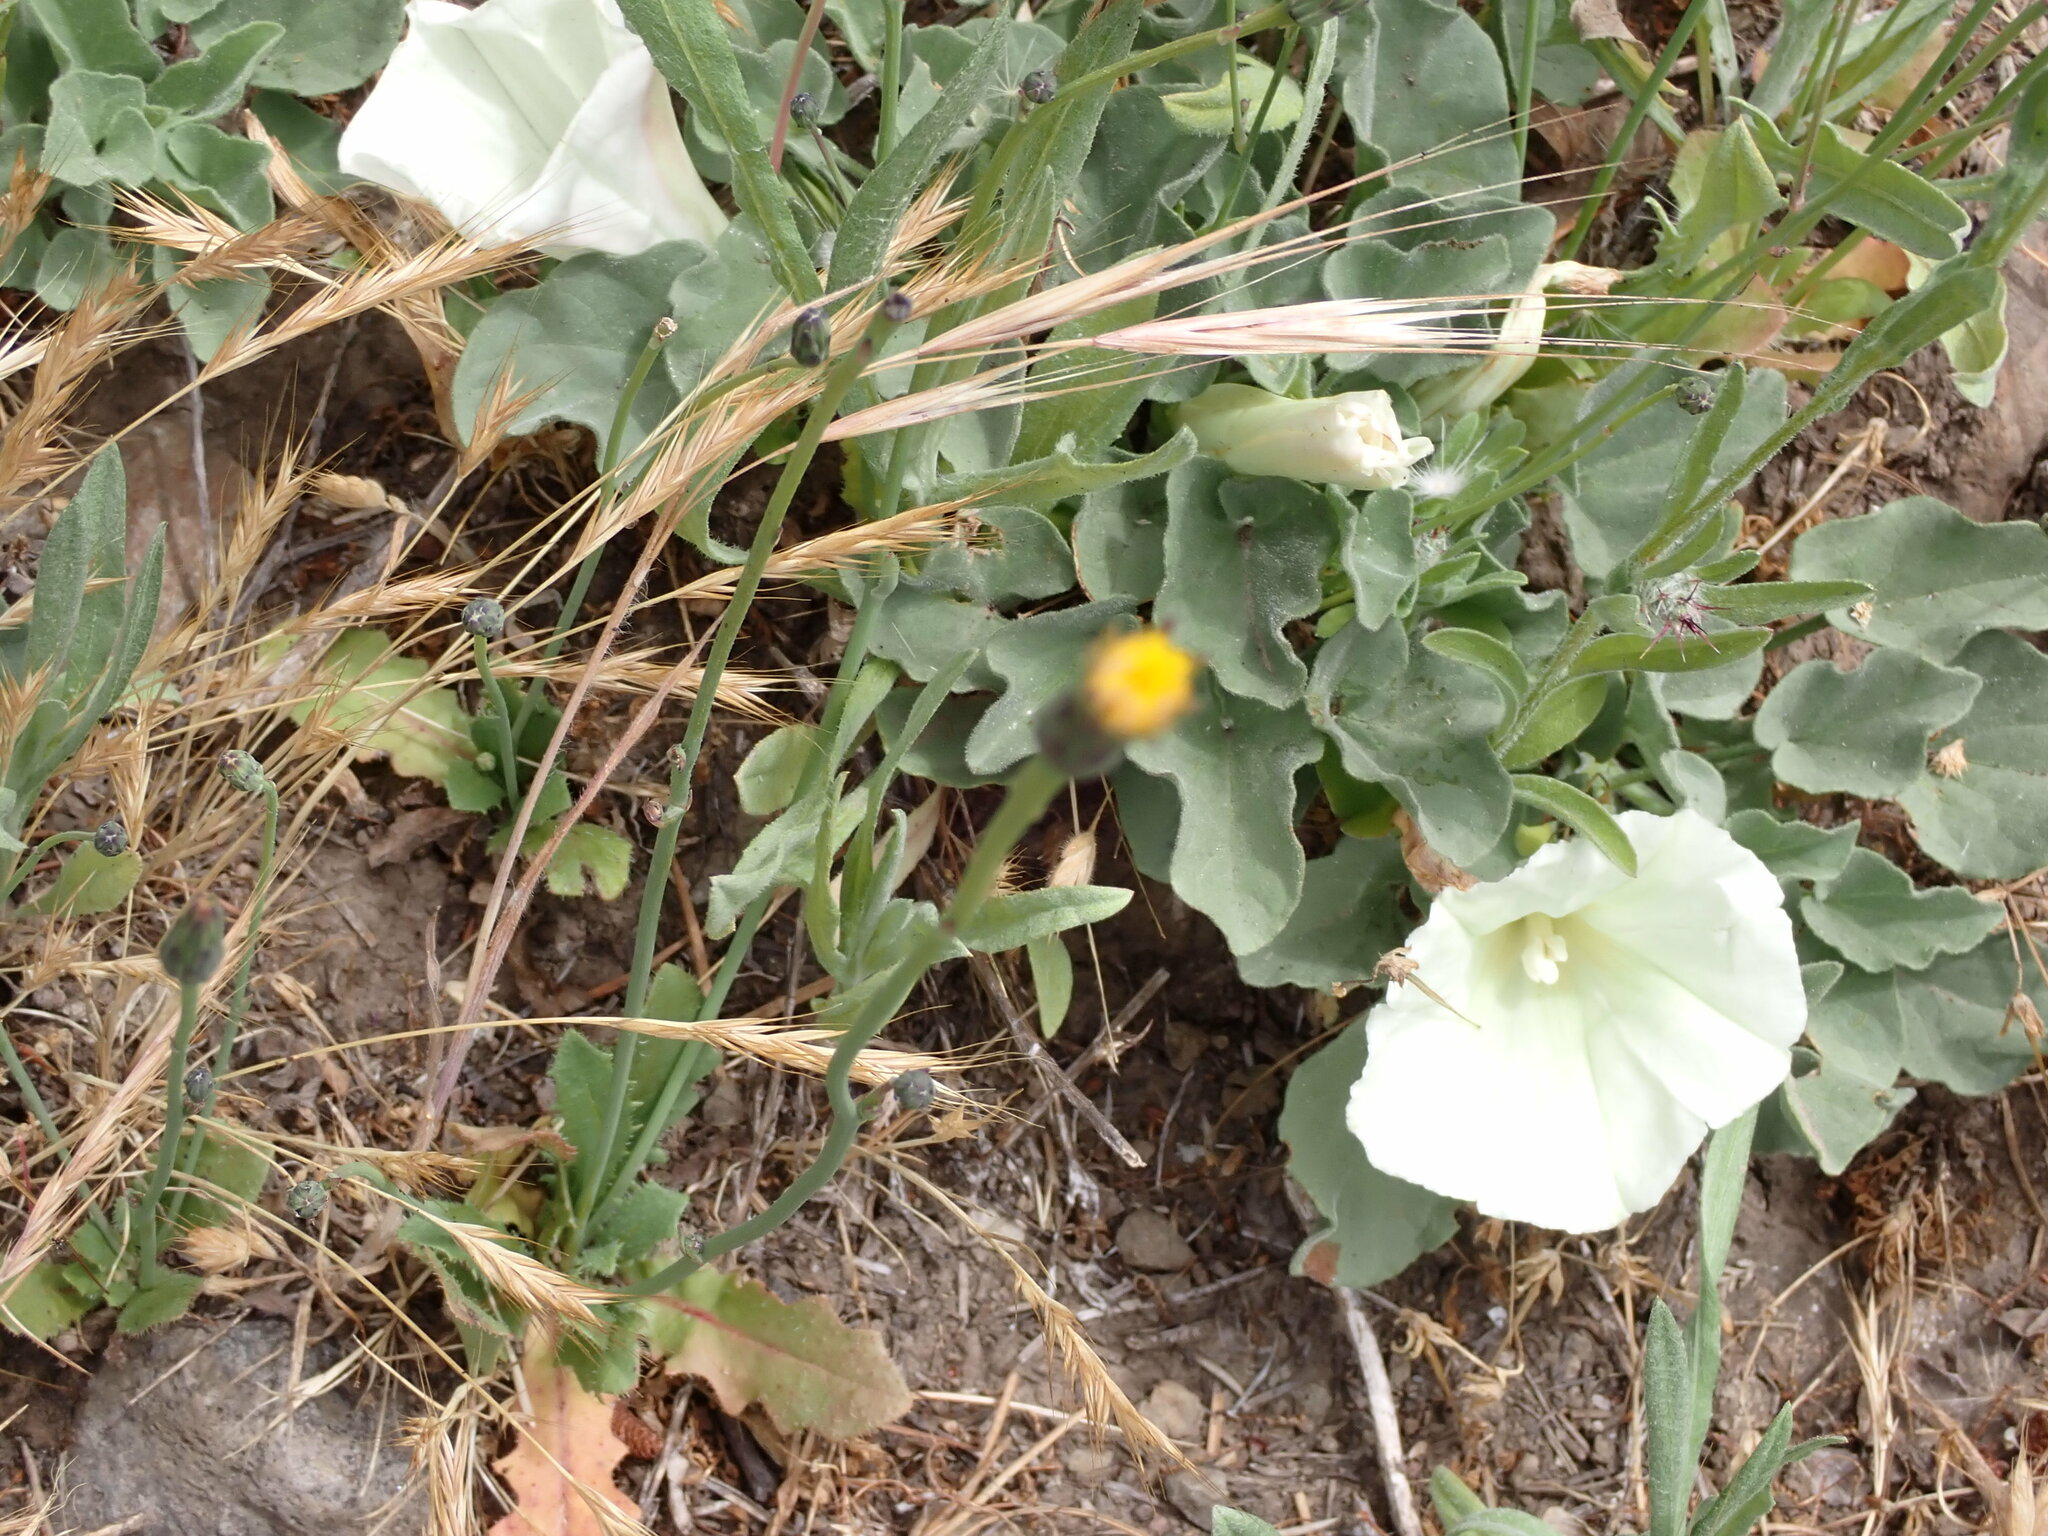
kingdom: Plantae
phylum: Tracheophyta
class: Magnoliopsida
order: Solanales
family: Convolvulaceae
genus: Calystegia
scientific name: Calystegia subacaulis
